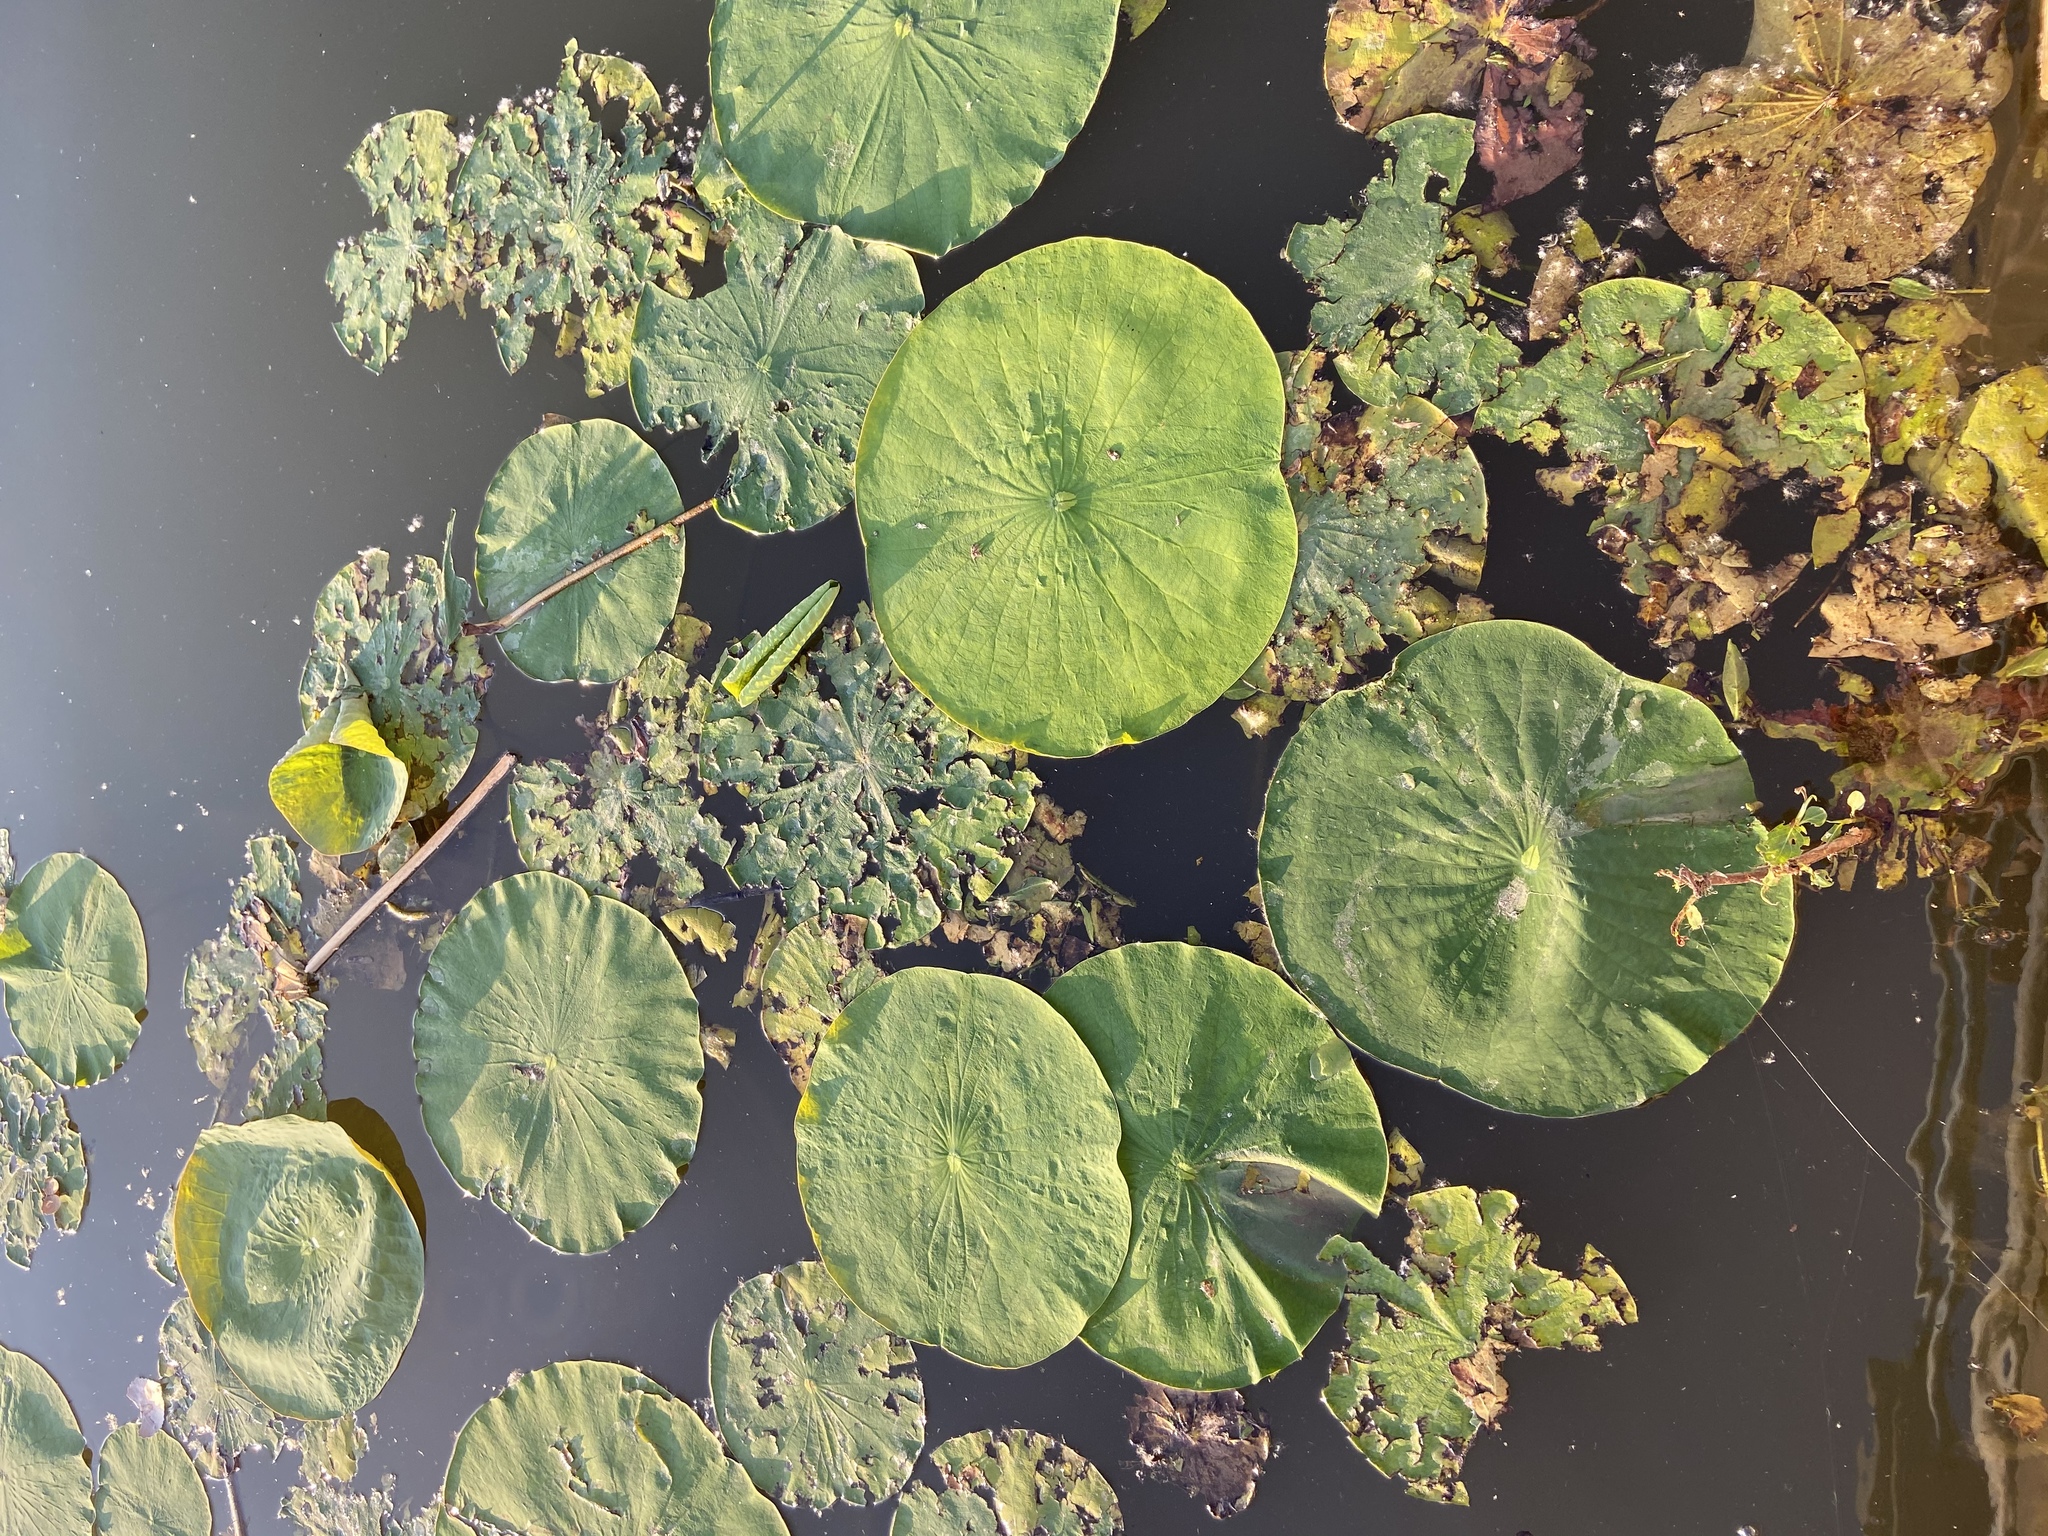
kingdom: Plantae
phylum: Tracheophyta
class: Magnoliopsida
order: Proteales
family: Nelumbonaceae
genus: Nelumbo
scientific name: Nelumbo lutea
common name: American lotus
